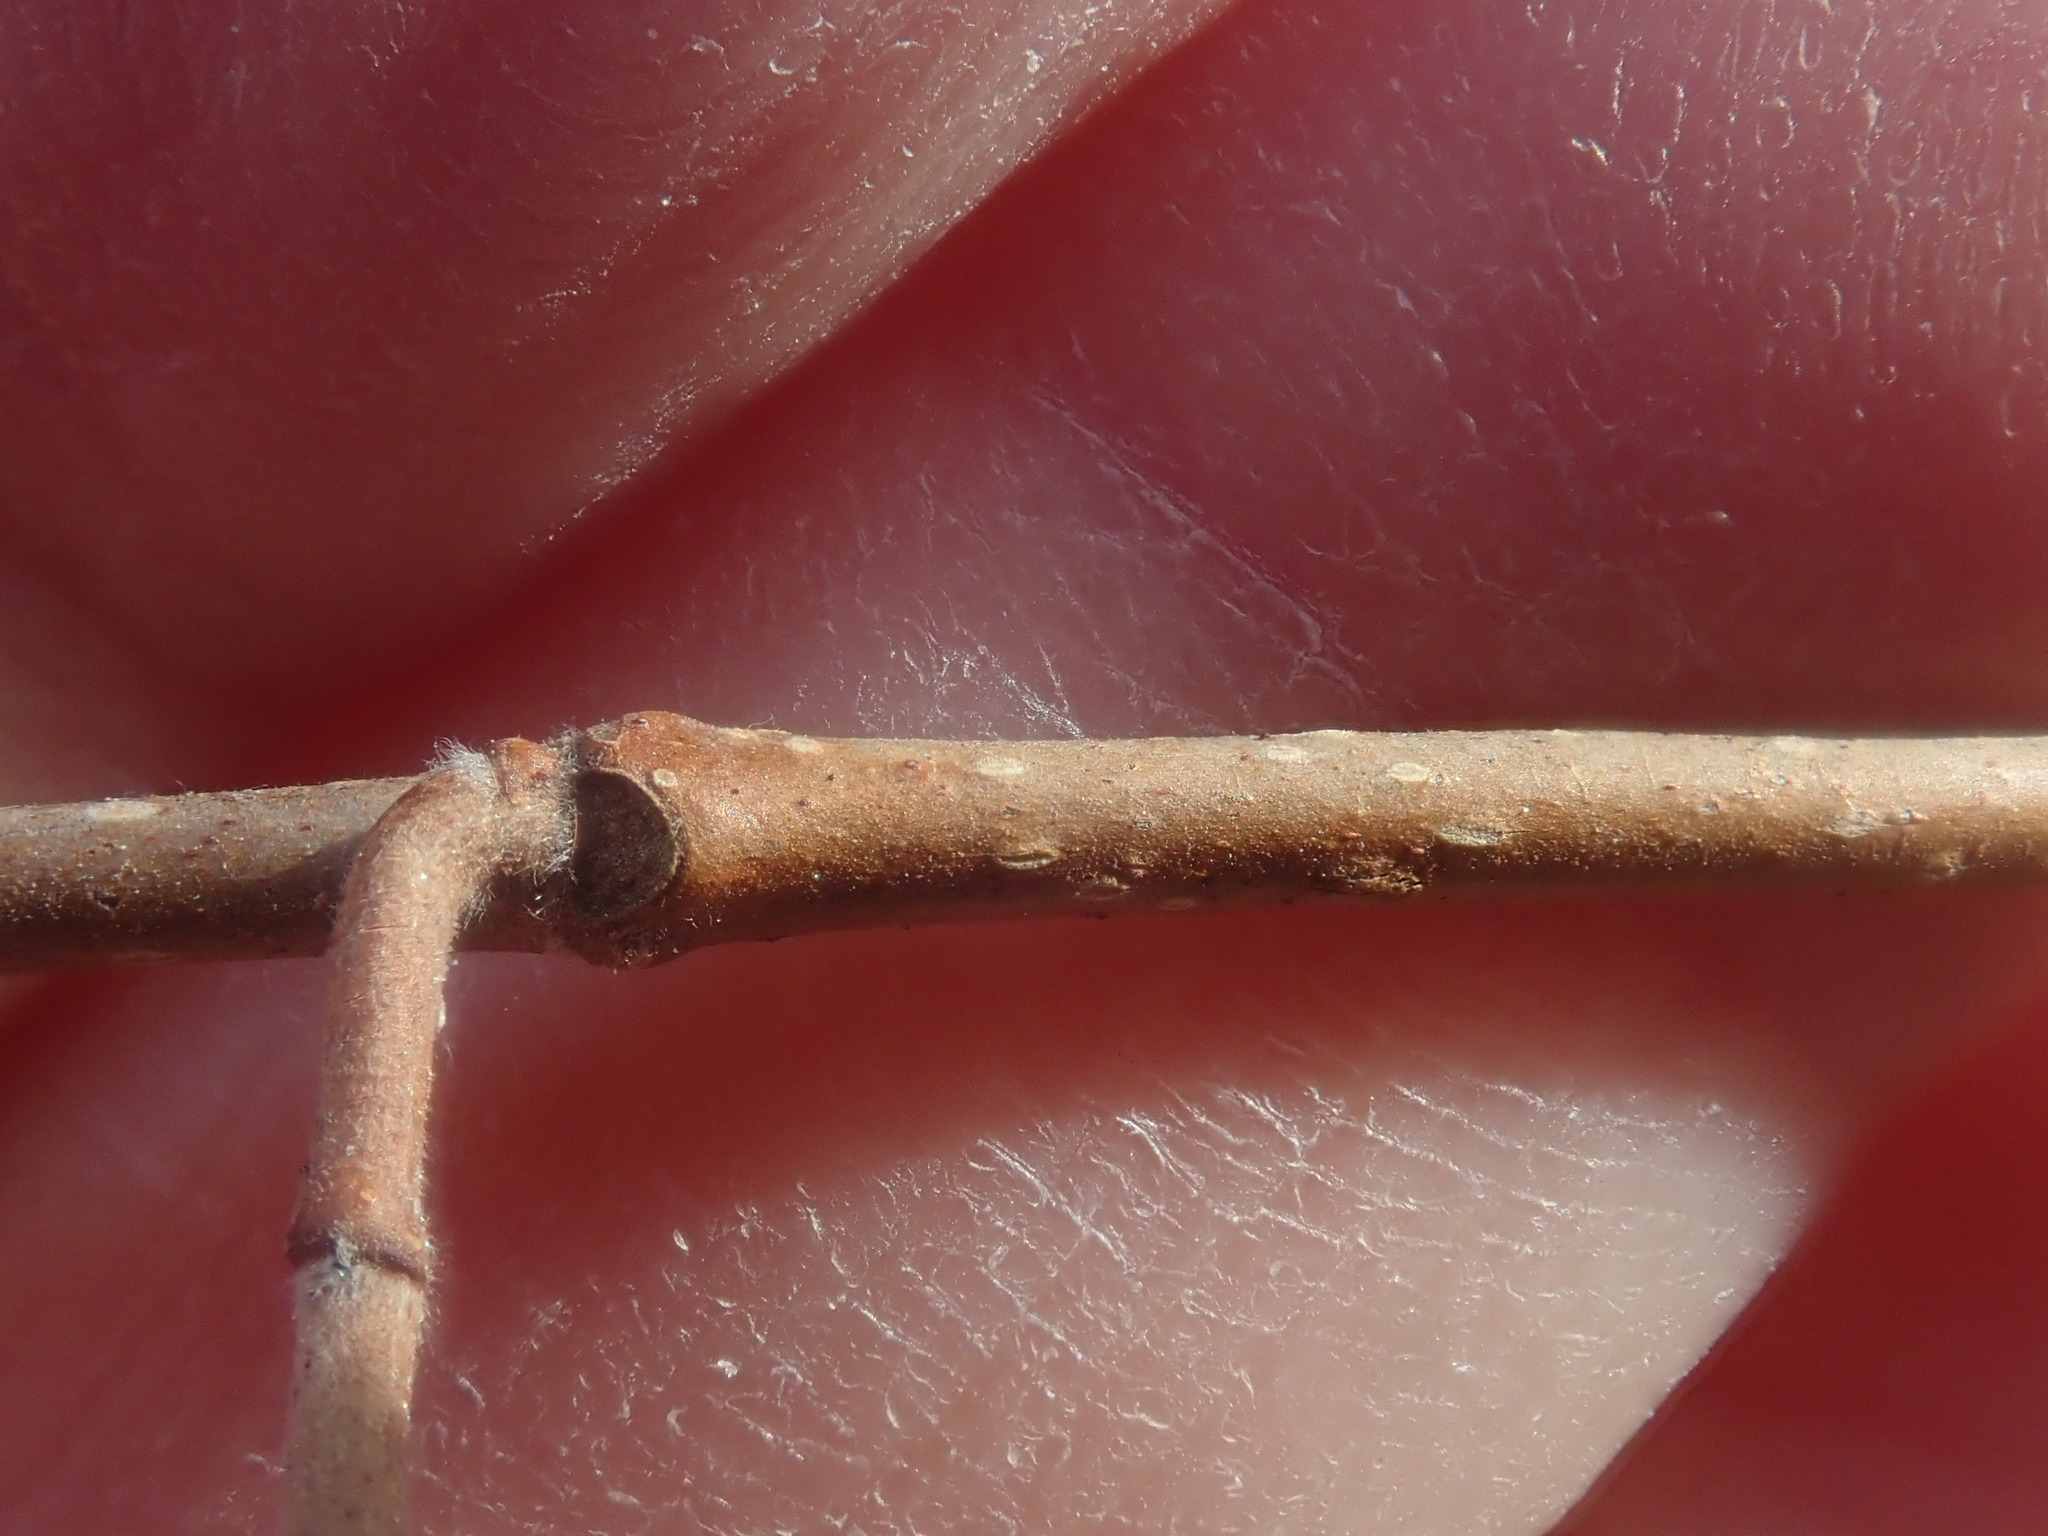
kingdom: Plantae
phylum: Tracheophyta
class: Magnoliopsida
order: Fagales
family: Betulaceae
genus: Corylus
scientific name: Corylus cornuta
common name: Beaked hazel
